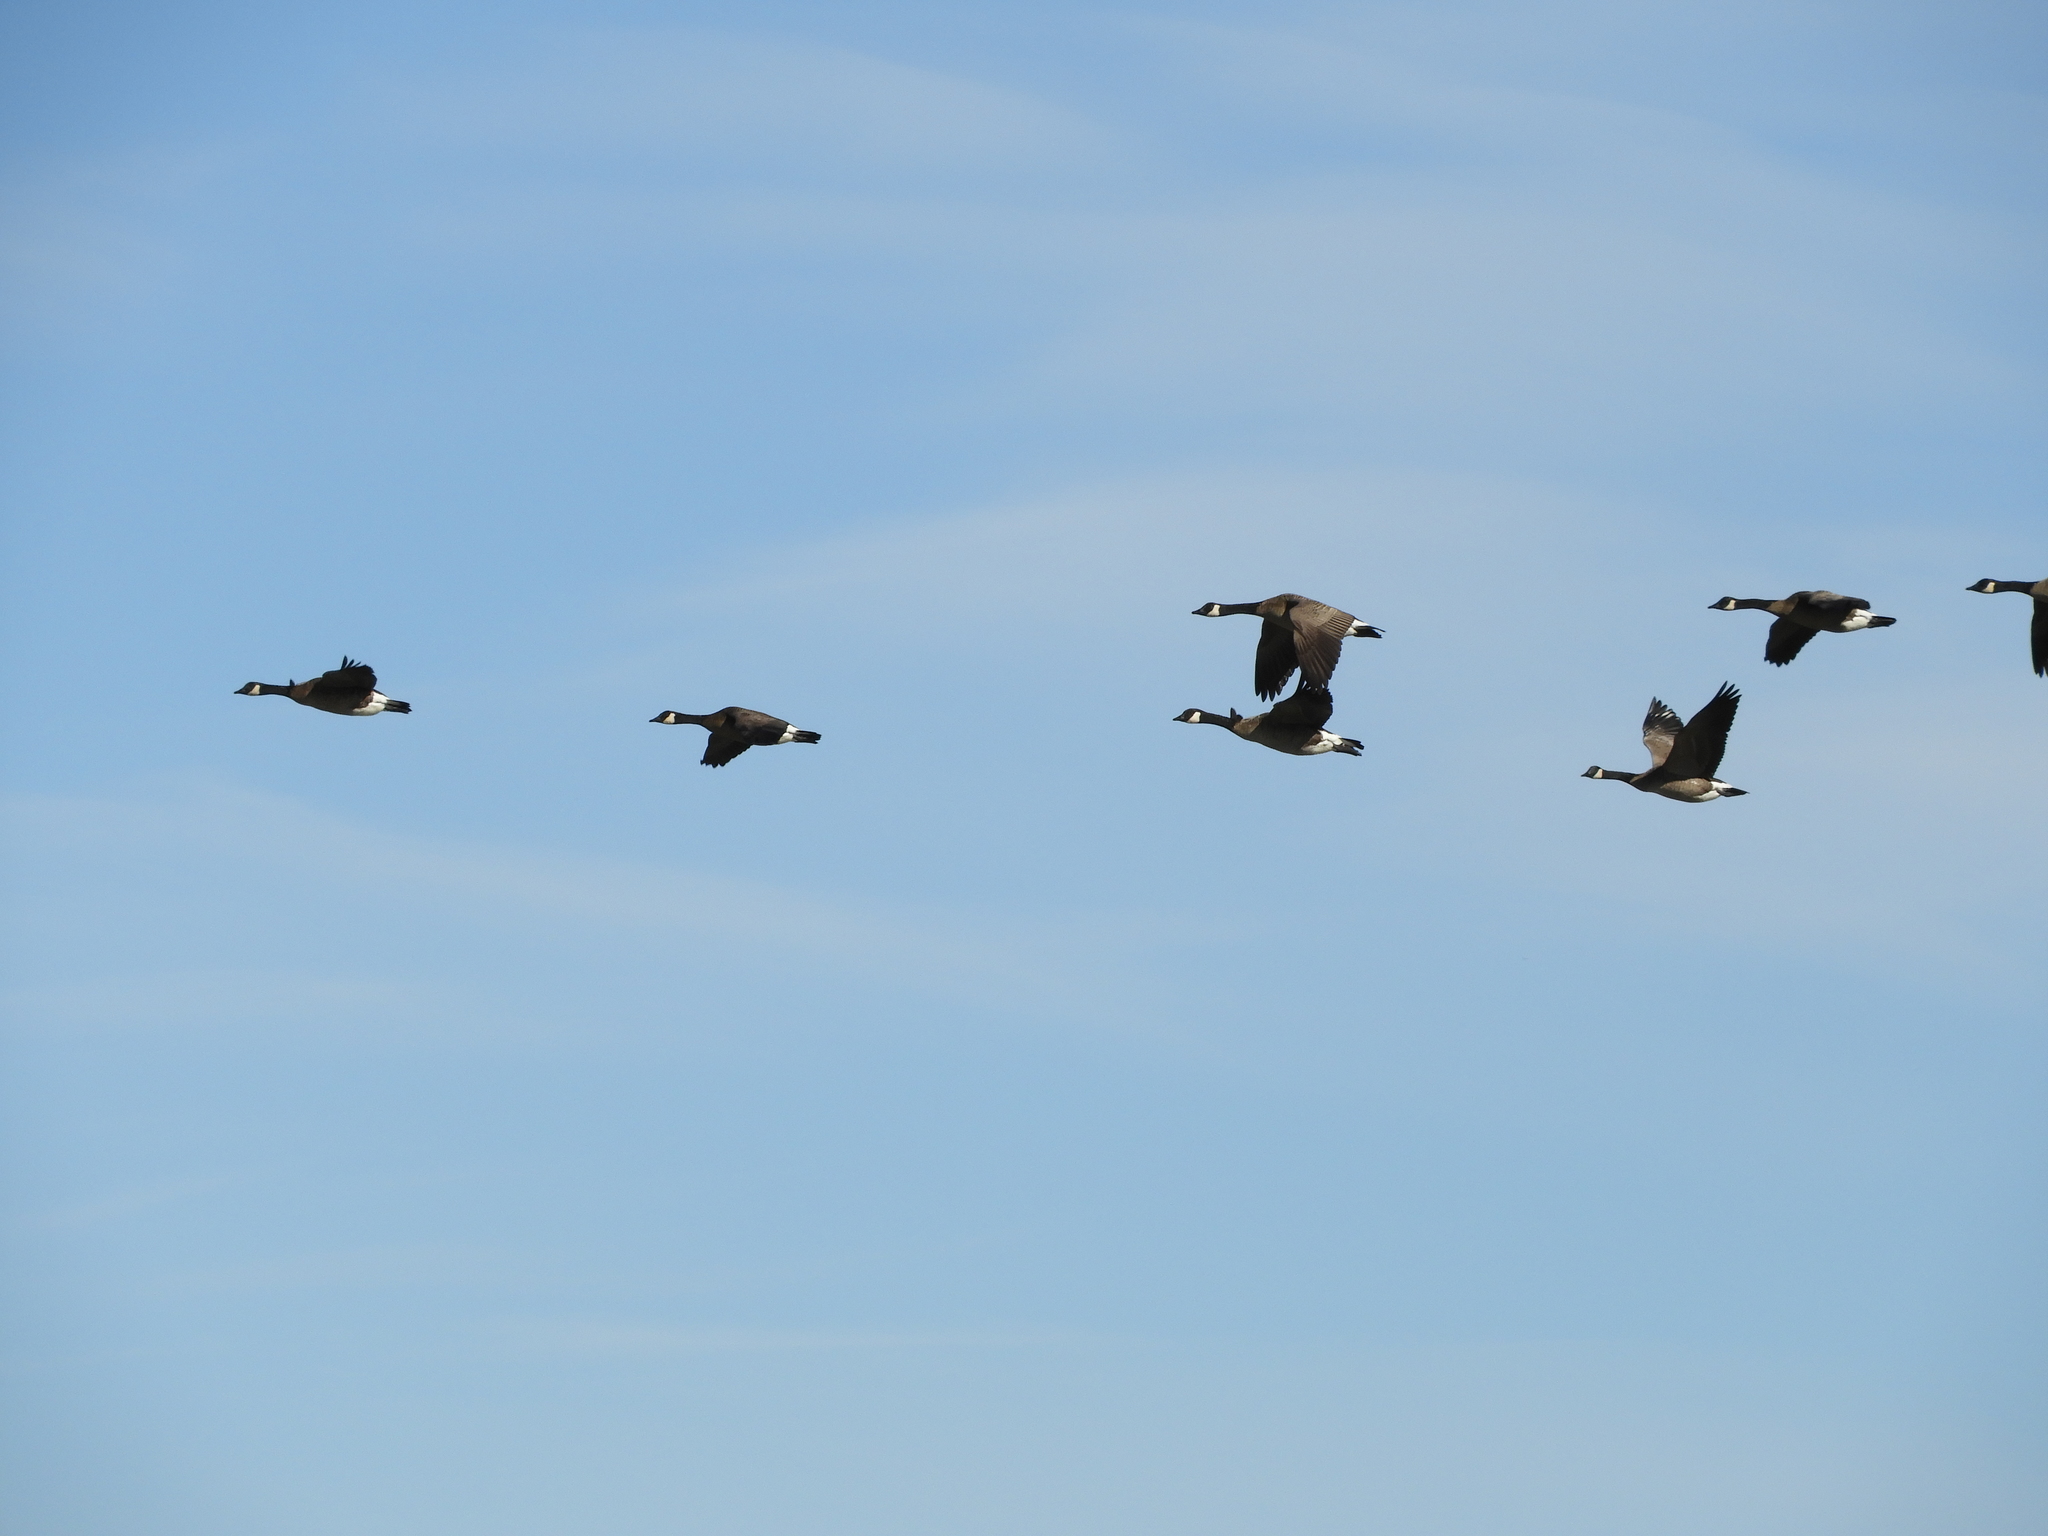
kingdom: Animalia
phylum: Chordata
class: Aves
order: Anseriformes
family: Anatidae
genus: Branta
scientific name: Branta canadensis
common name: Canada goose
